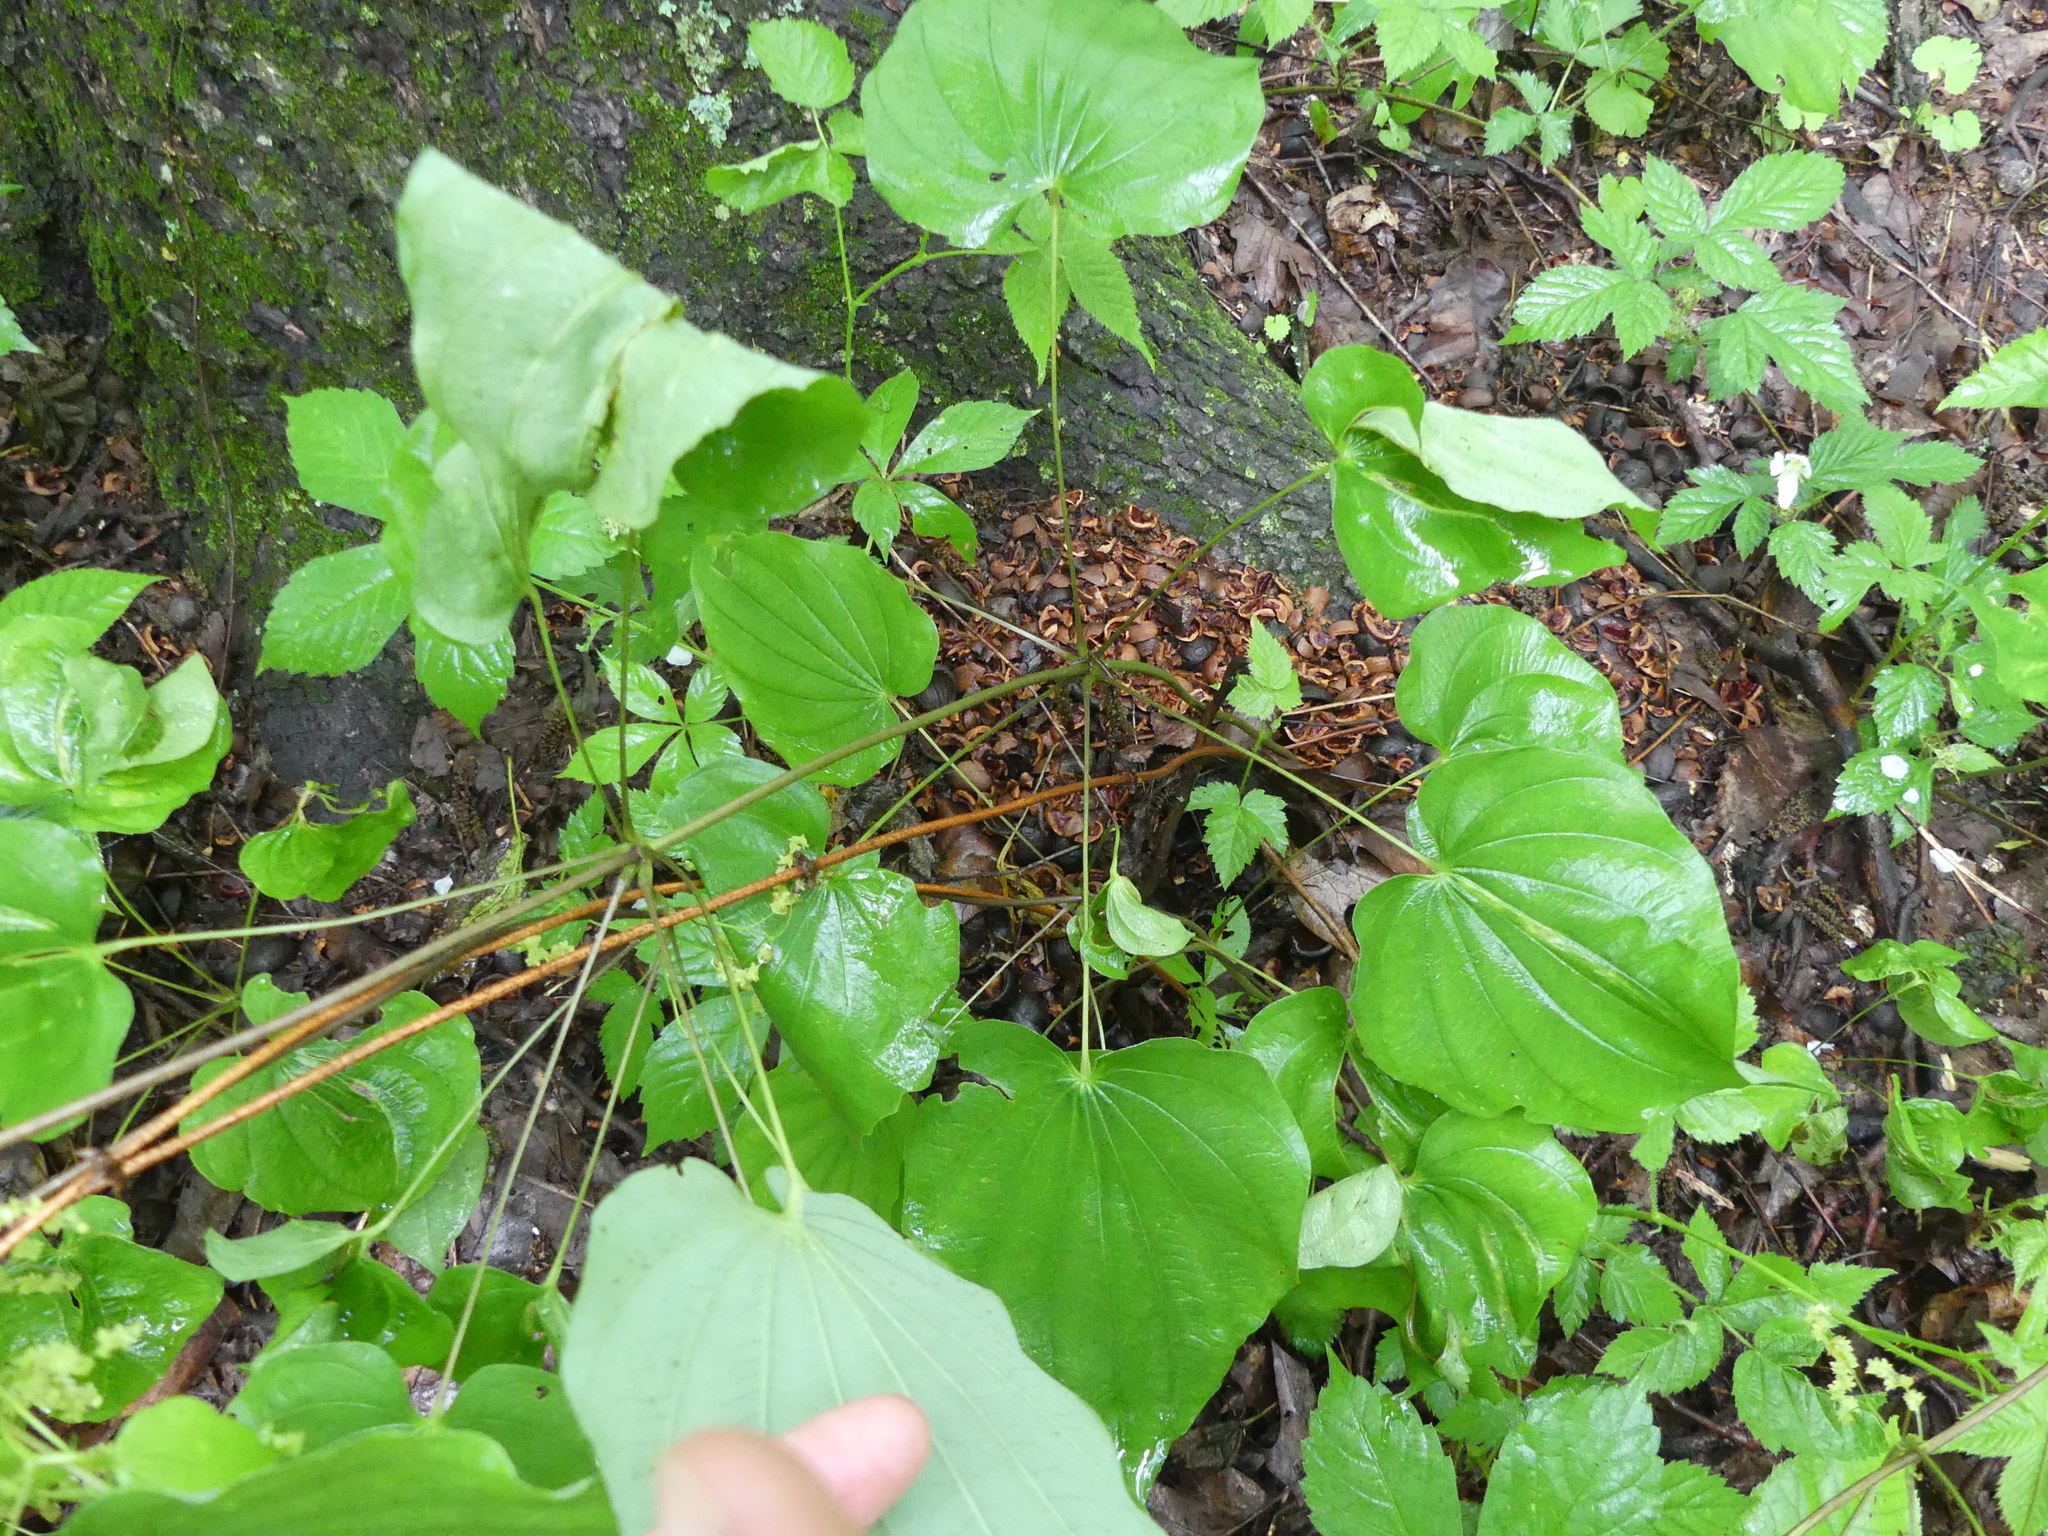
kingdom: Plantae
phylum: Tracheophyta
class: Liliopsida
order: Dioscoreales
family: Dioscoreaceae
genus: Dioscorea
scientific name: Dioscorea villosa
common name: Wild yam
